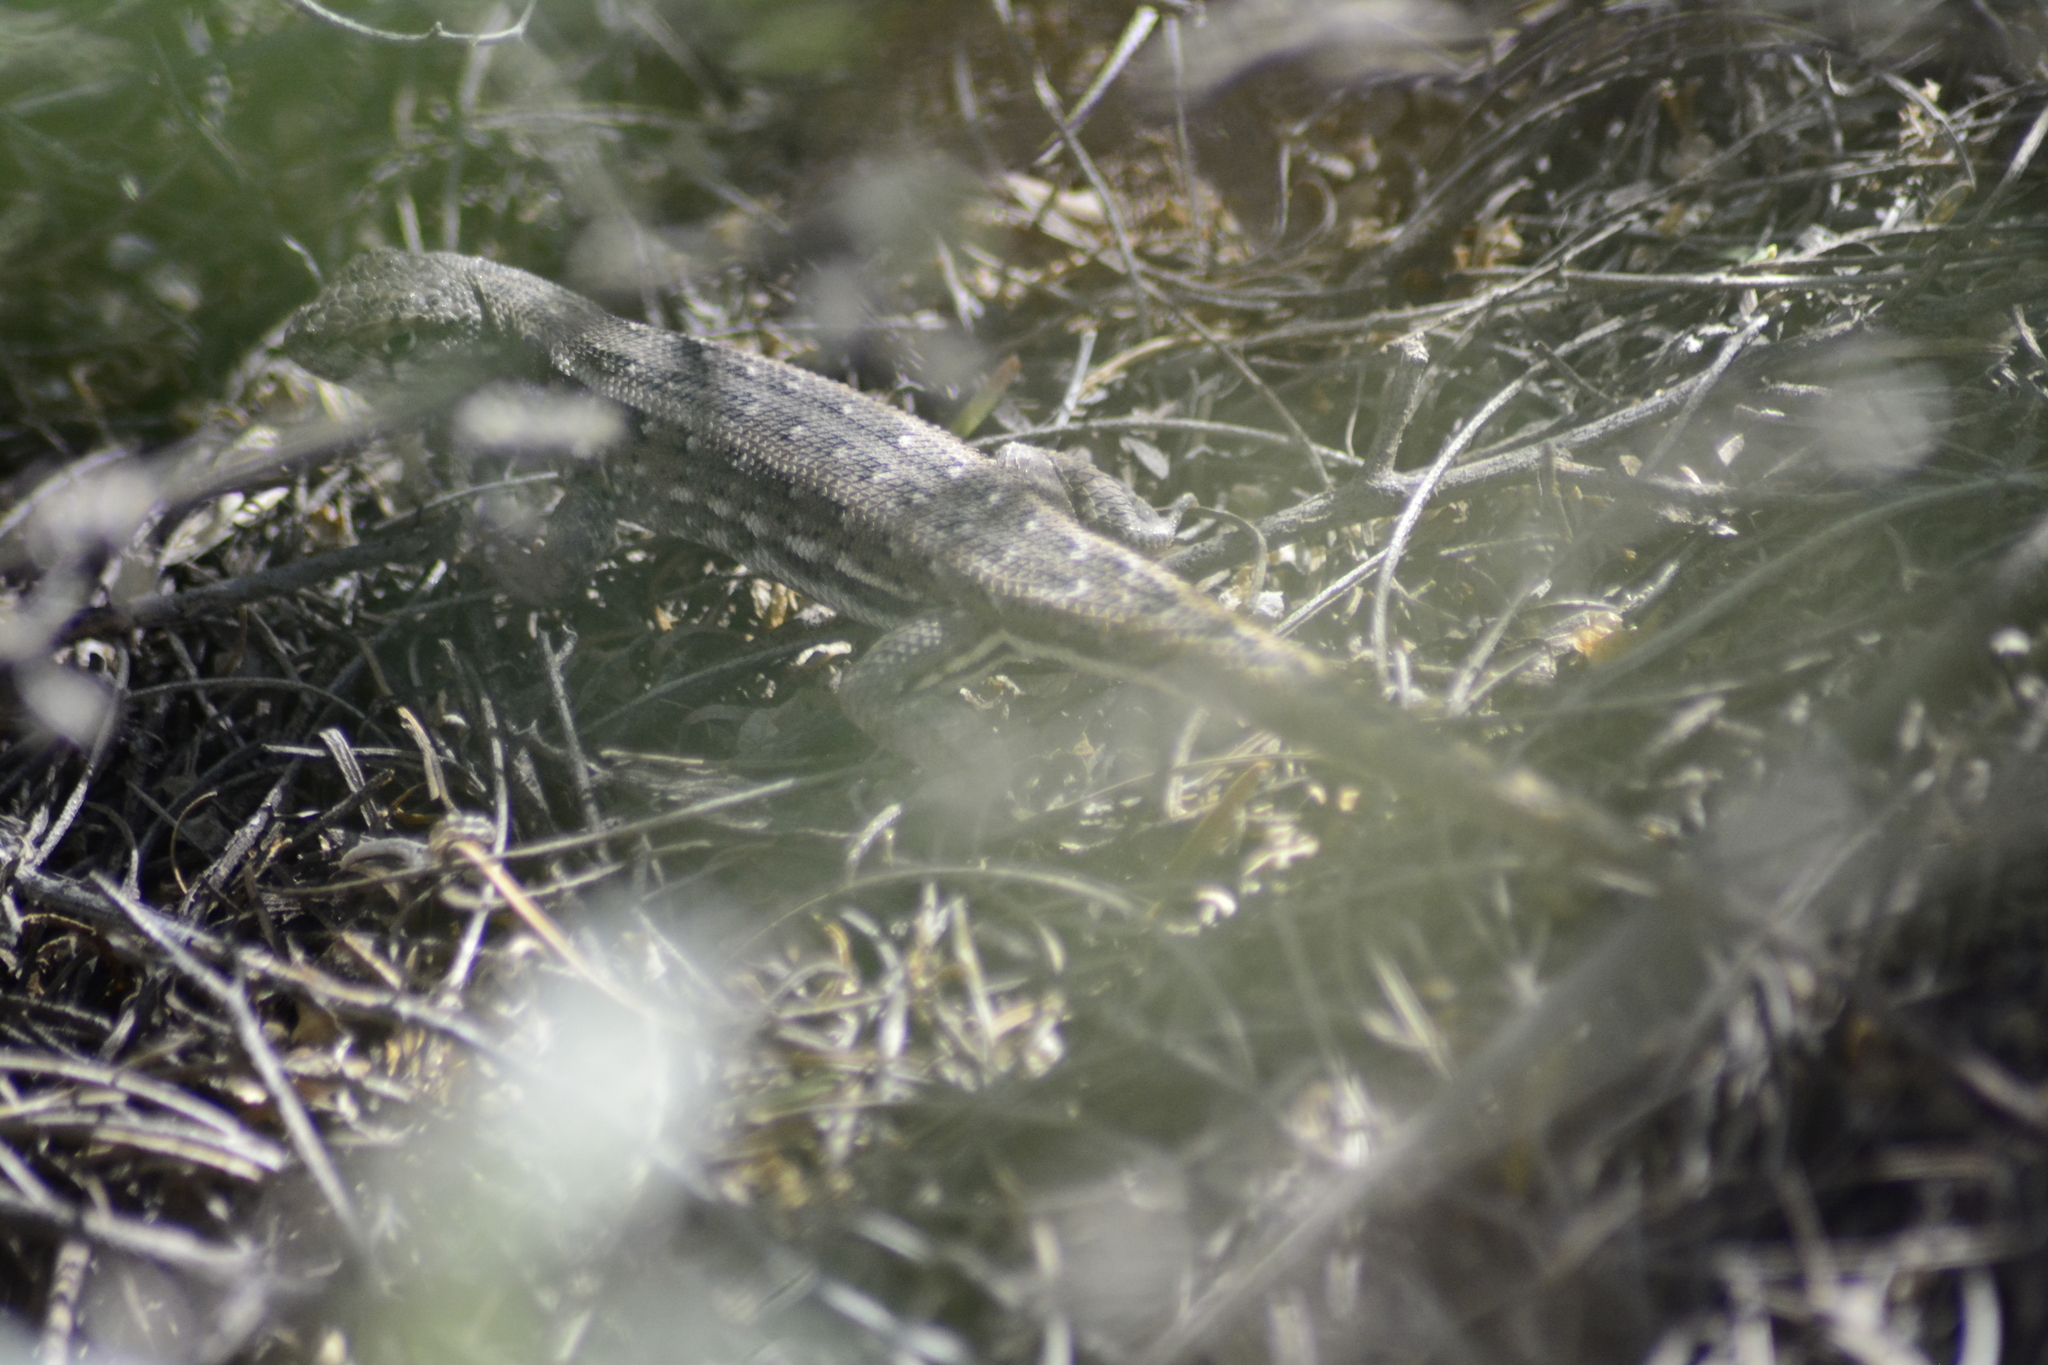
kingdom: Animalia
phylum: Chordata
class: Squamata
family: Liolaemidae
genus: Liolaemus
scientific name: Liolaemus darwinii
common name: Darwin's tree iguana
